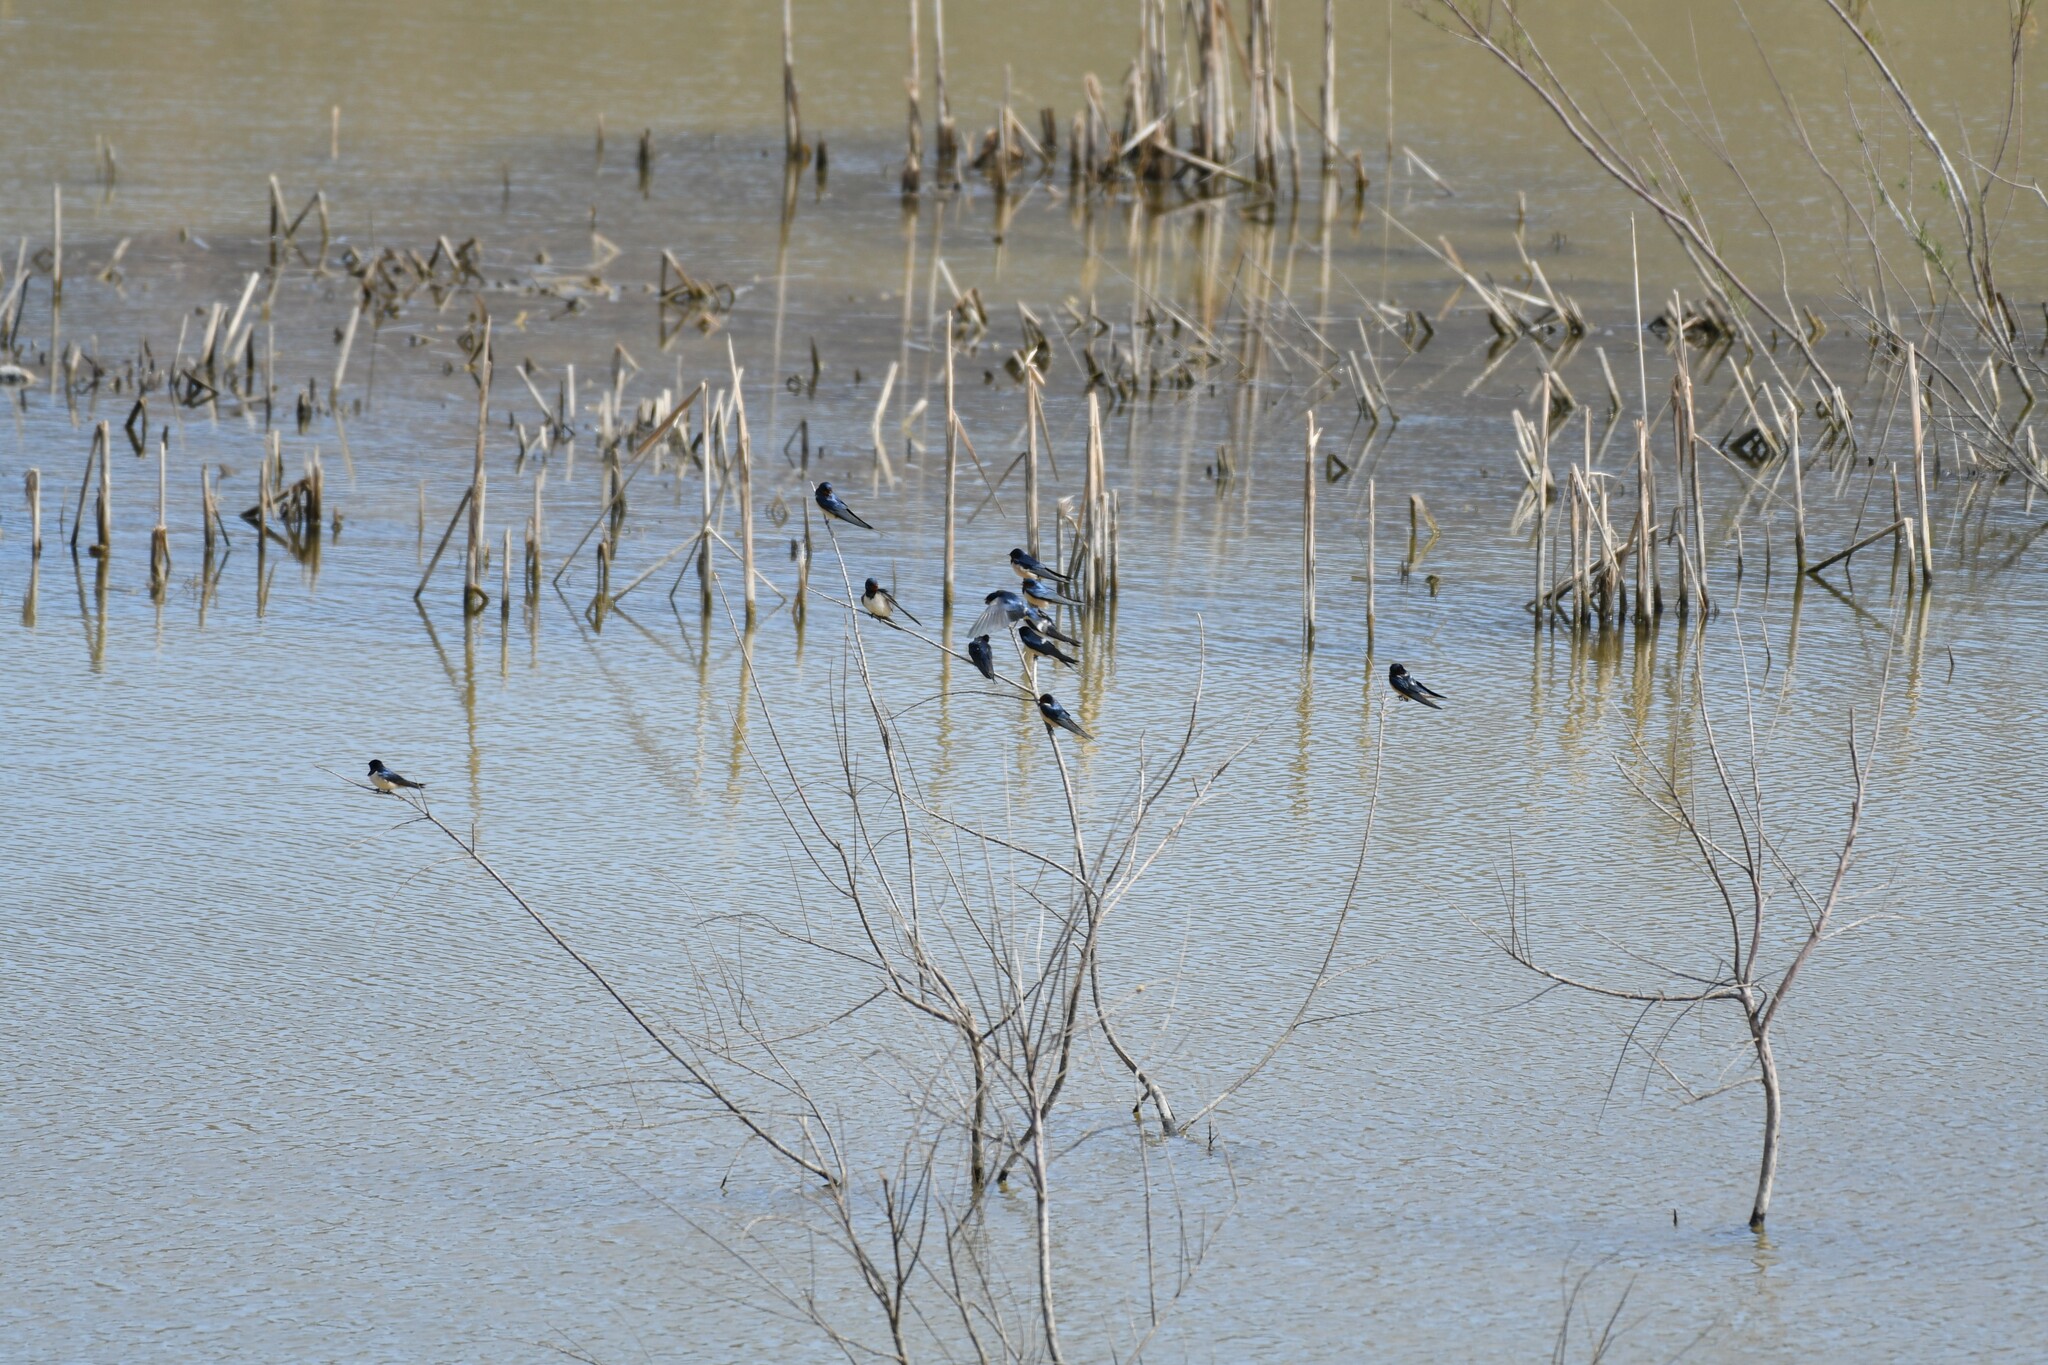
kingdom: Animalia
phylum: Chordata
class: Aves
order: Passeriformes
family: Hirundinidae
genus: Hirundo
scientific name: Hirundo rustica
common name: Barn swallow
